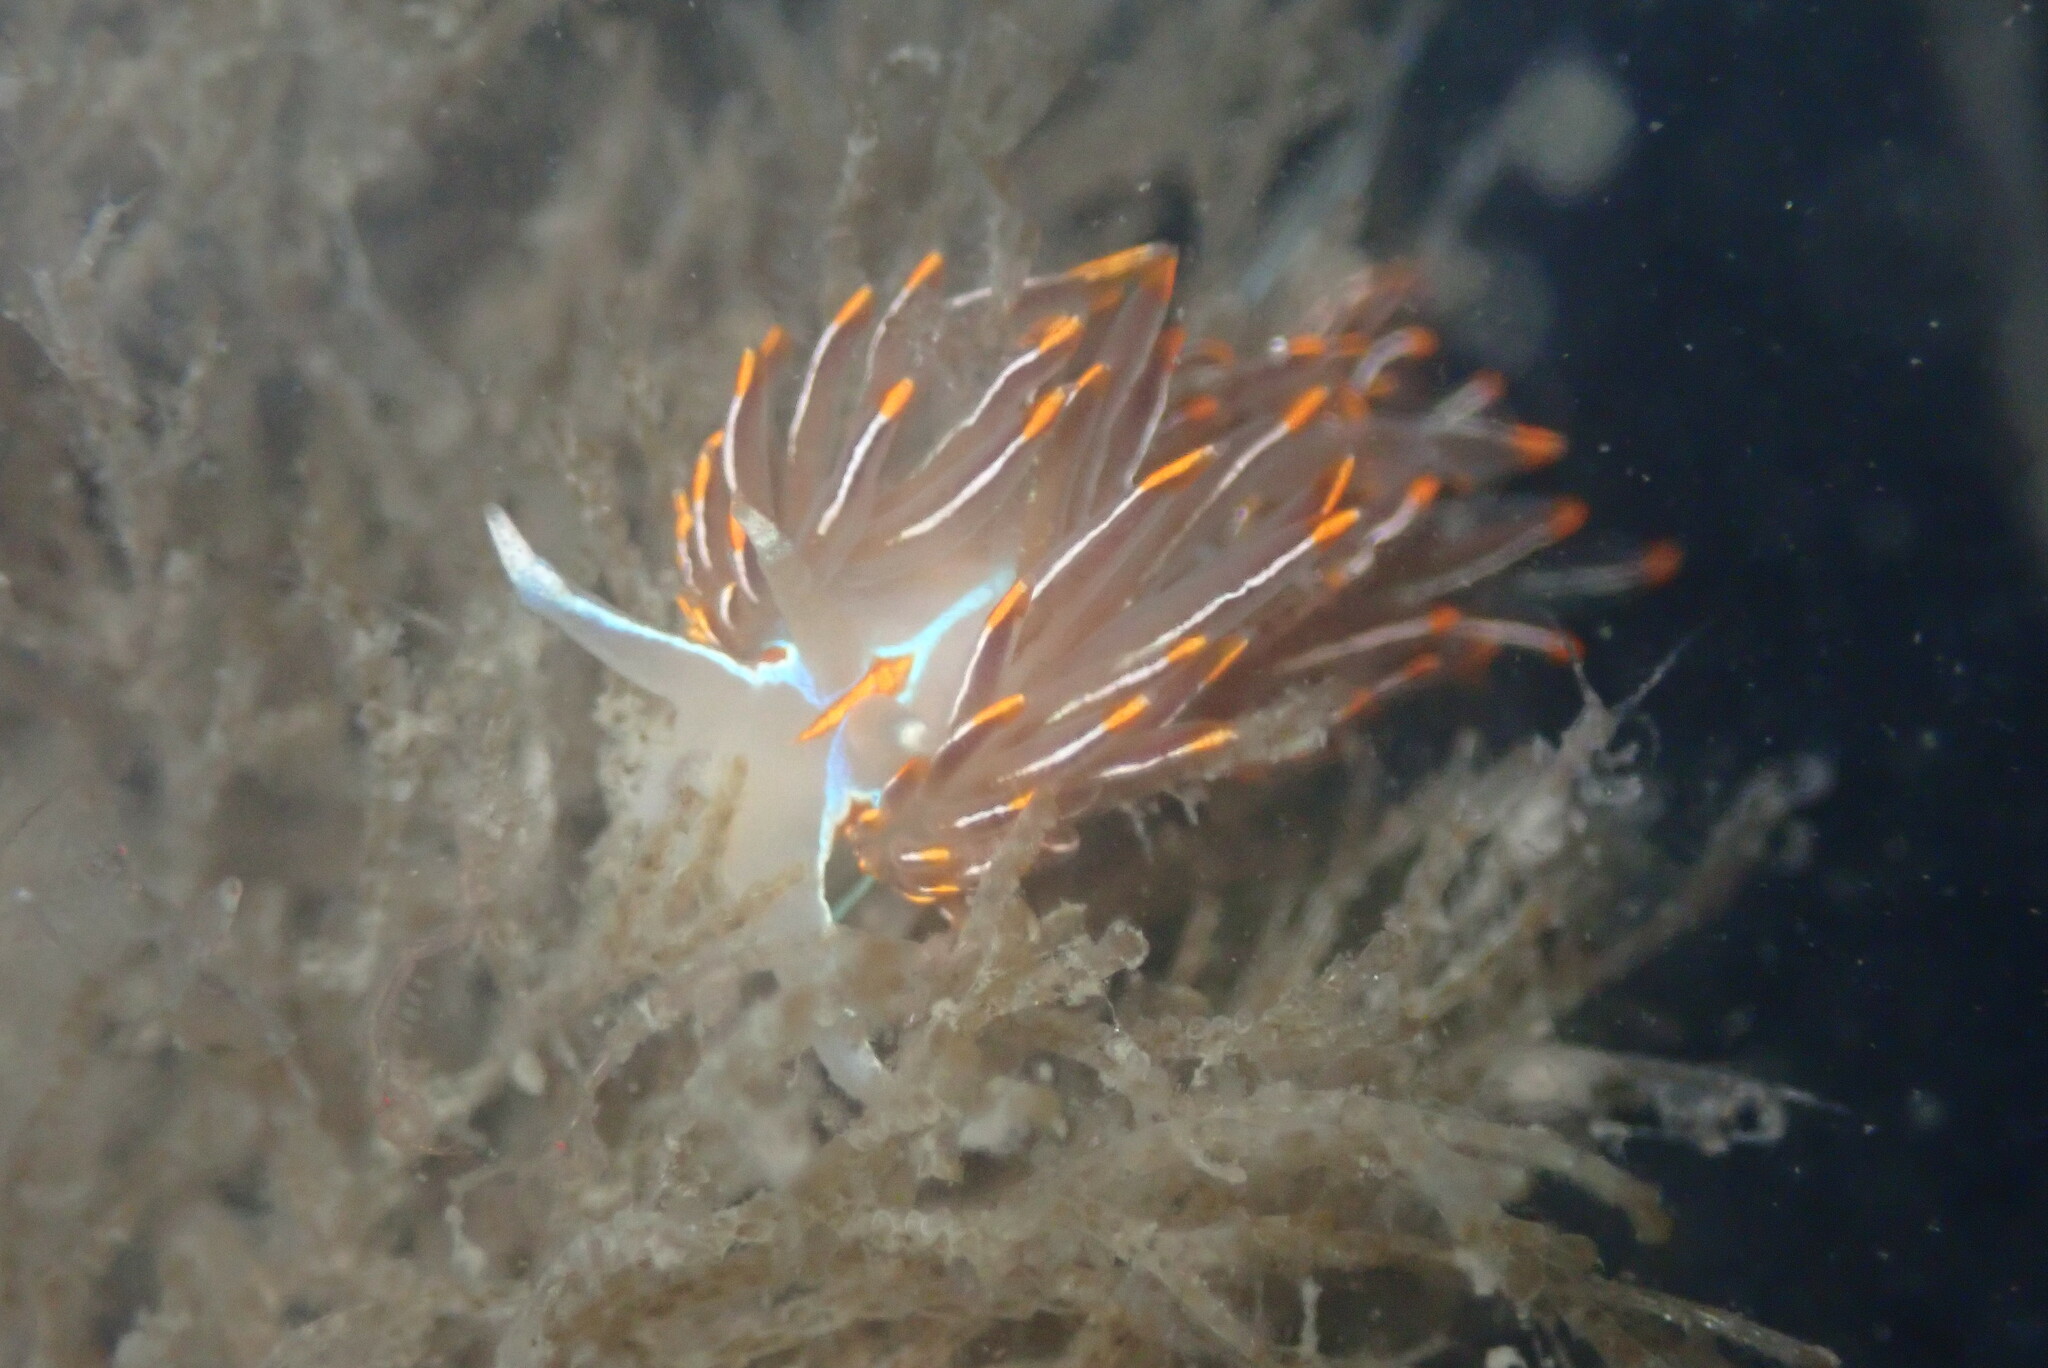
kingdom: Animalia
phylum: Mollusca
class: Gastropoda
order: Nudibranchia
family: Myrrhinidae
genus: Hermissenda
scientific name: Hermissenda crassicornis
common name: Hermissenda
